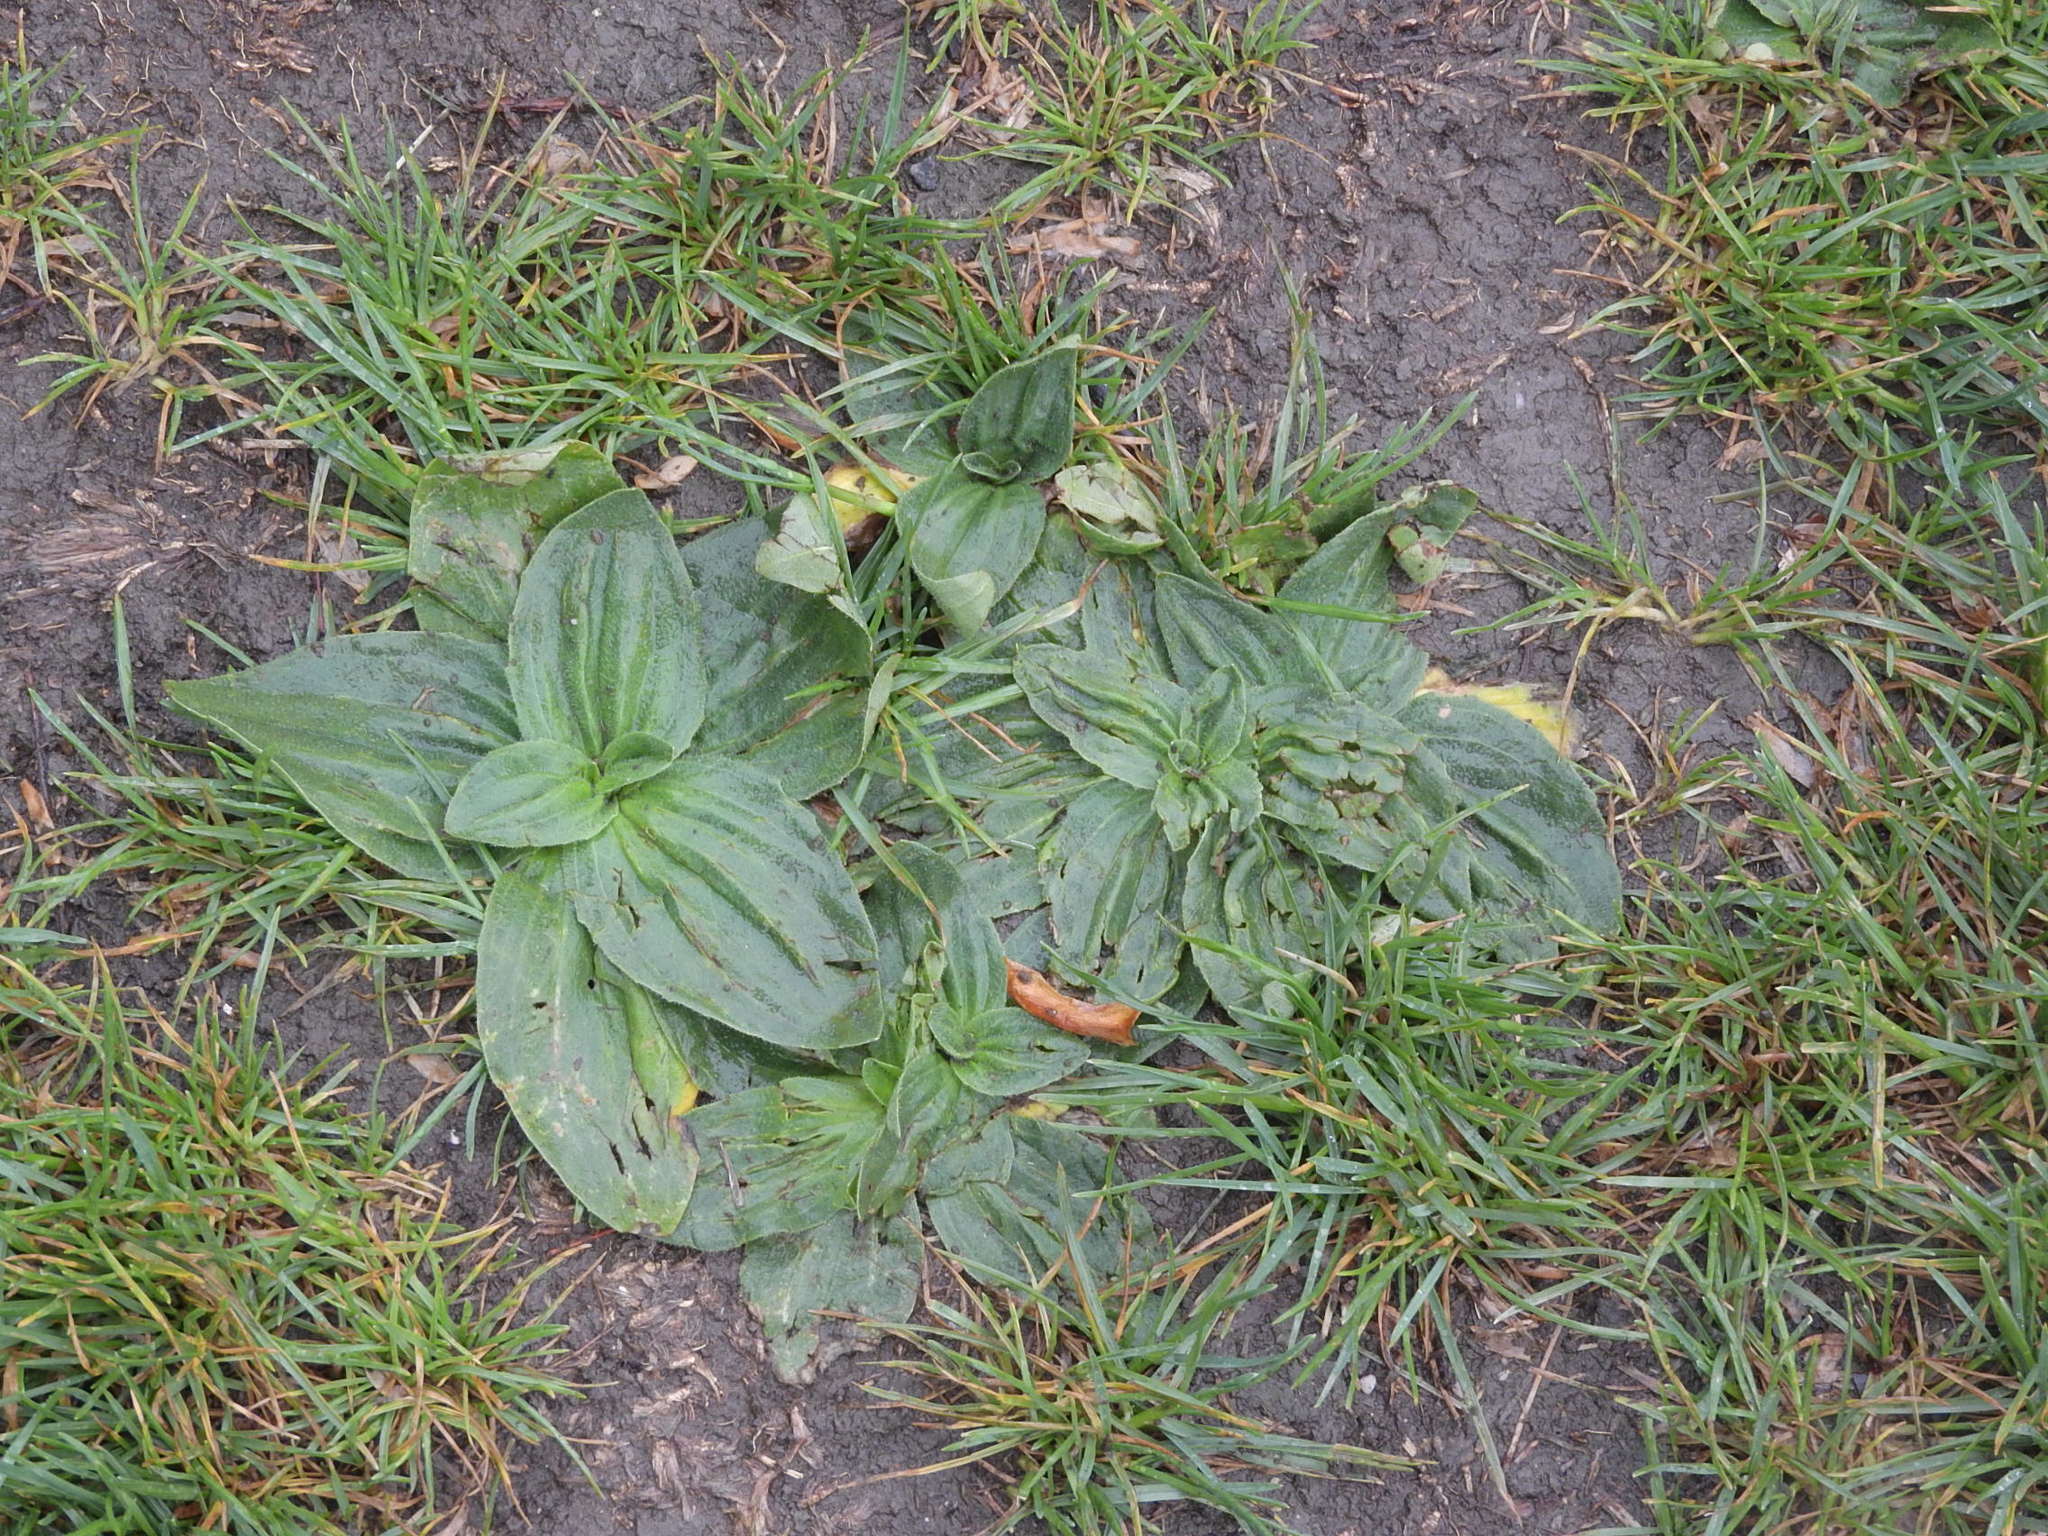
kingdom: Plantae
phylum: Tracheophyta
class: Magnoliopsida
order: Lamiales
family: Plantaginaceae
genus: Plantago
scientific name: Plantago media
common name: Hoary plantain
